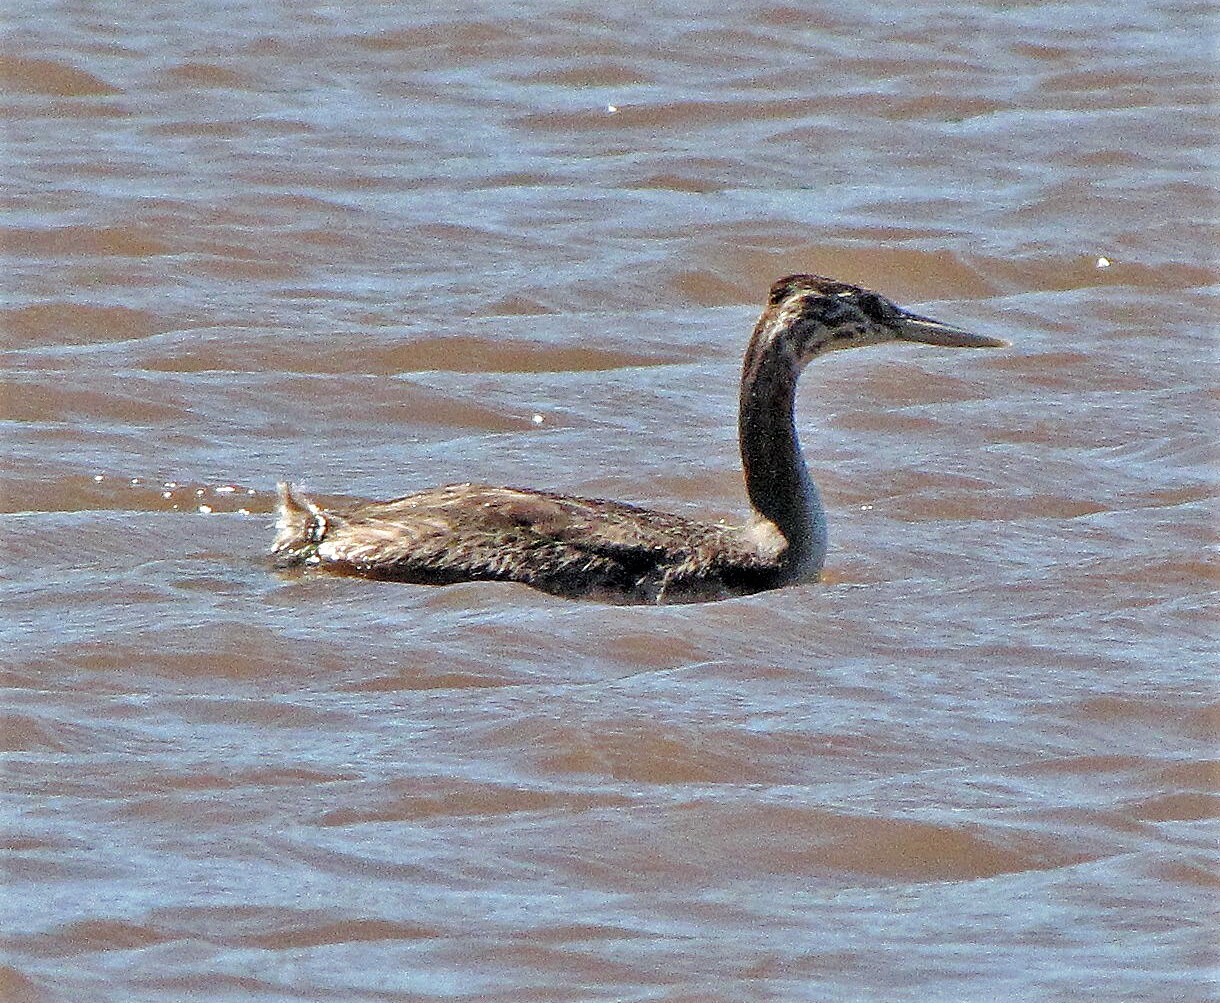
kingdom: Animalia
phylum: Chordata
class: Aves
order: Podicipediformes
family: Podicipedidae
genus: Podiceps
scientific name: Podiceps major
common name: Great grebe
